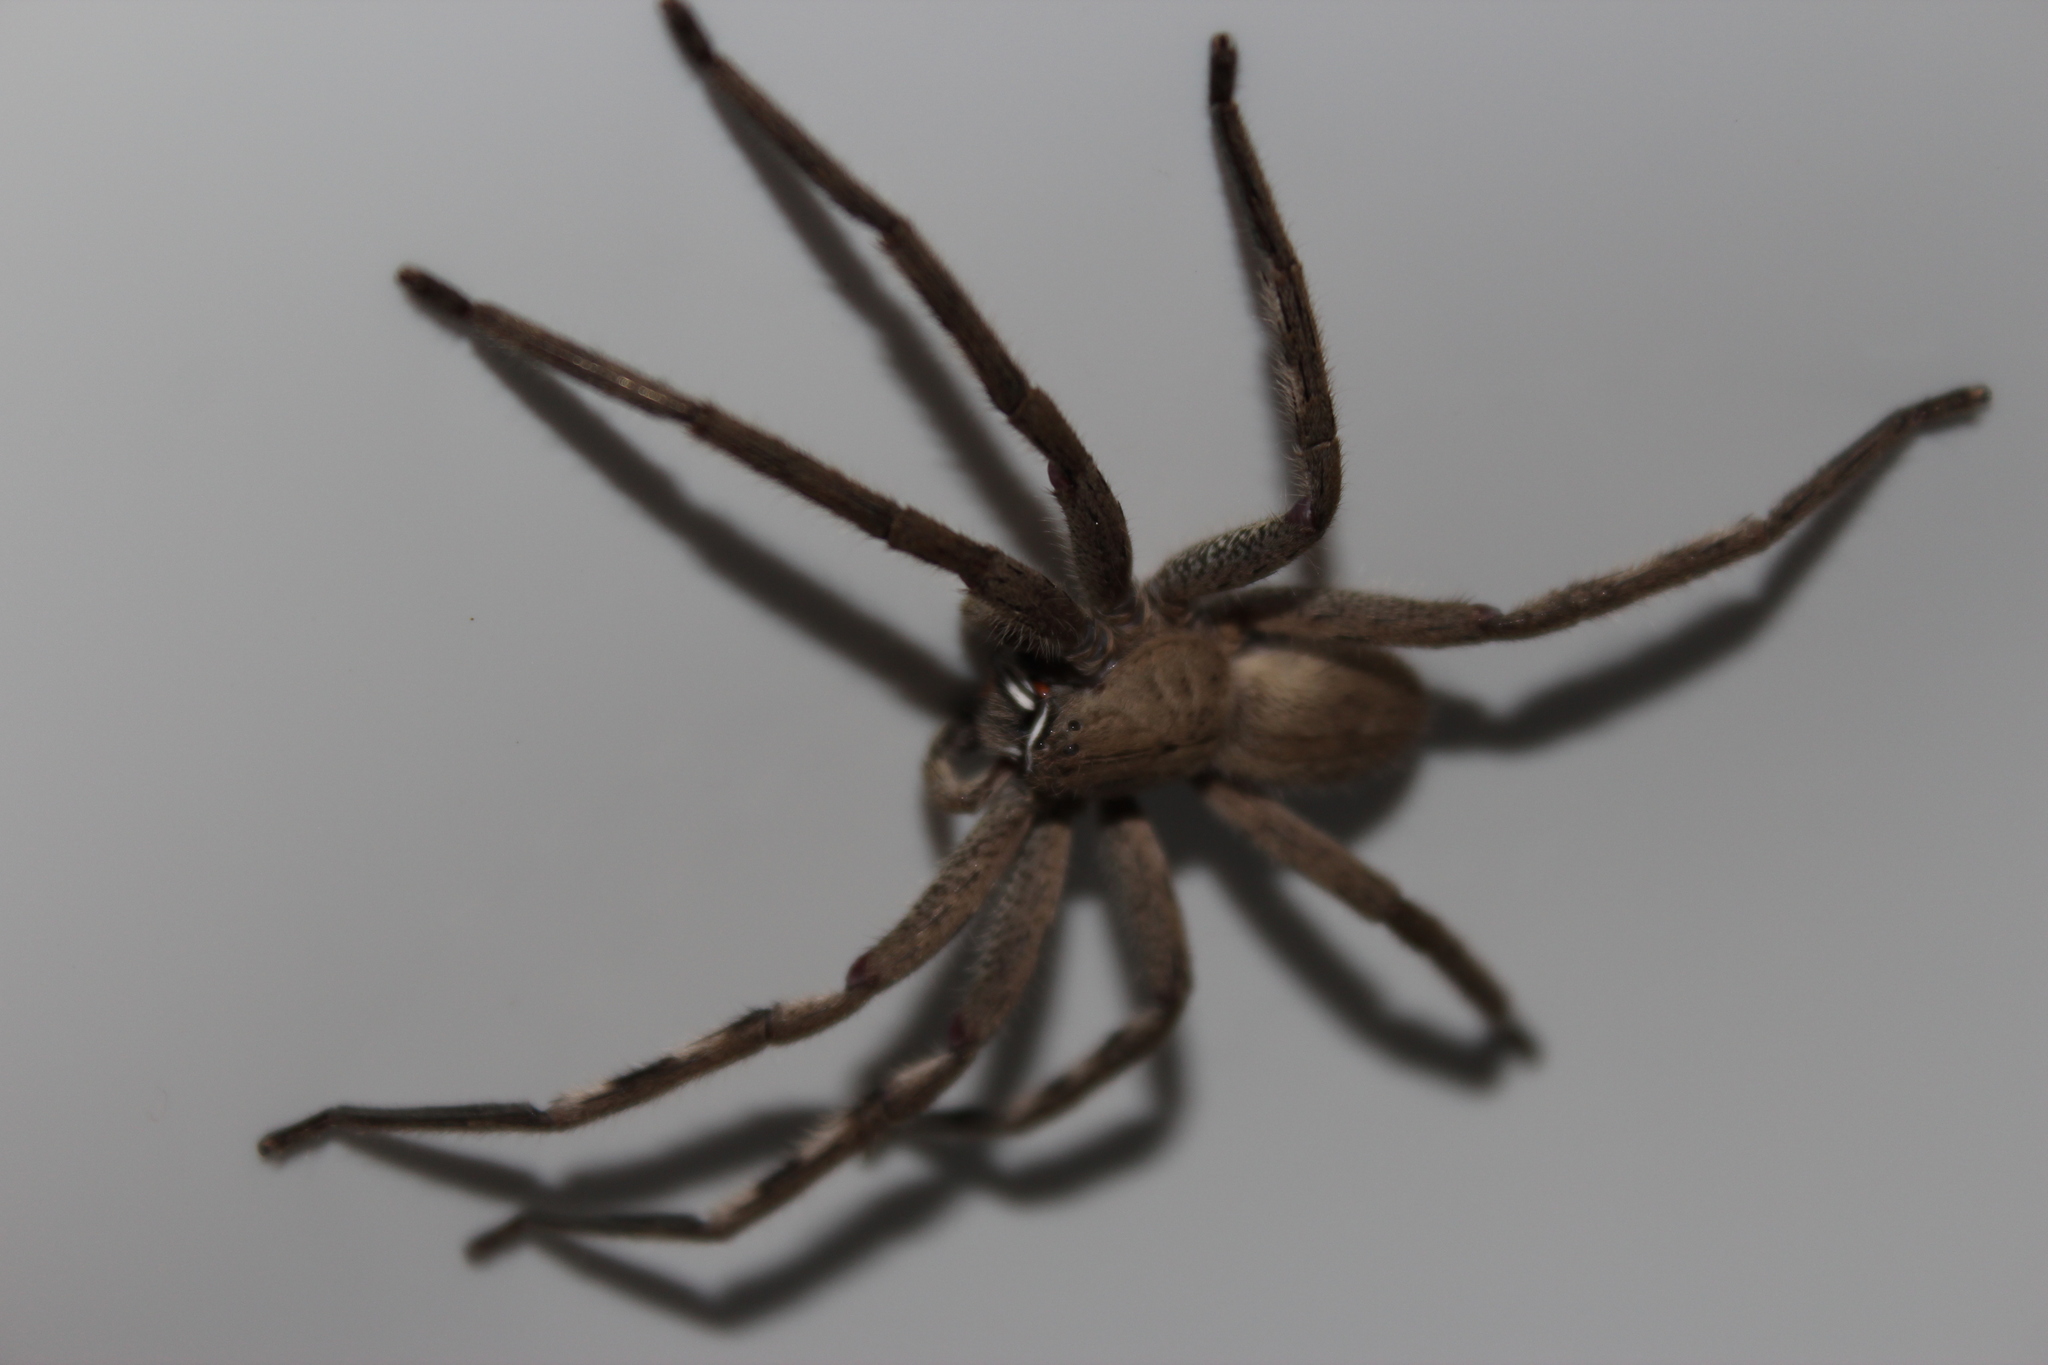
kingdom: Animalia
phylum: Arthropoda
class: Arachnida
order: Araneae
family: Sparassidae
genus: Palystes
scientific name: Palystes superciliosus
